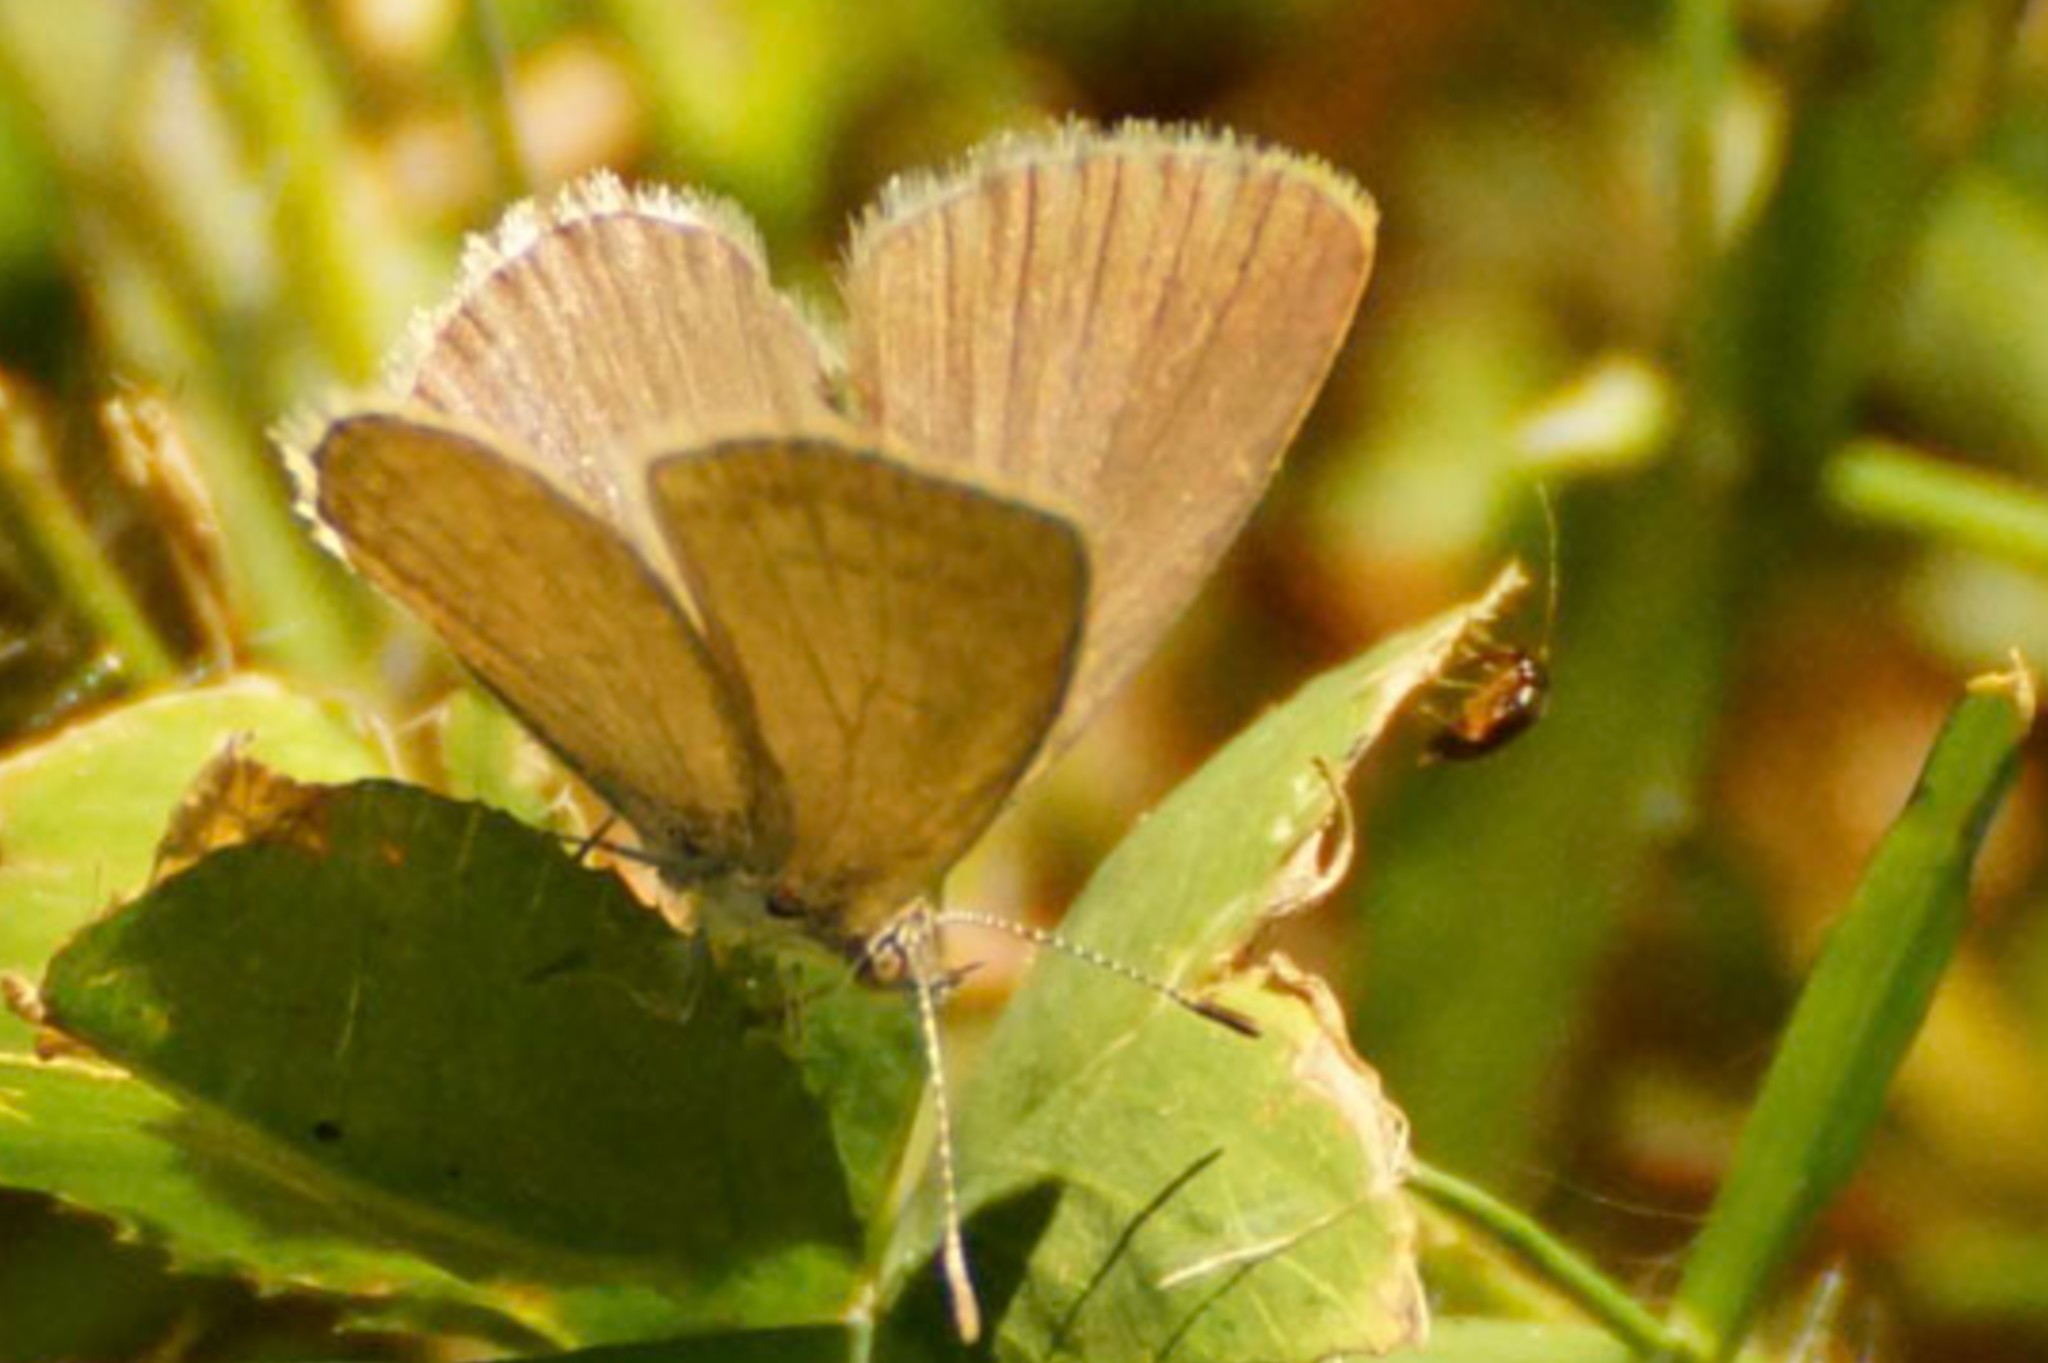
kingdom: Animalia
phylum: Arthropoda
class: Insecta
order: Lepidoptera
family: Lycaenidae
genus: Zizina
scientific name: Zizina labradus
